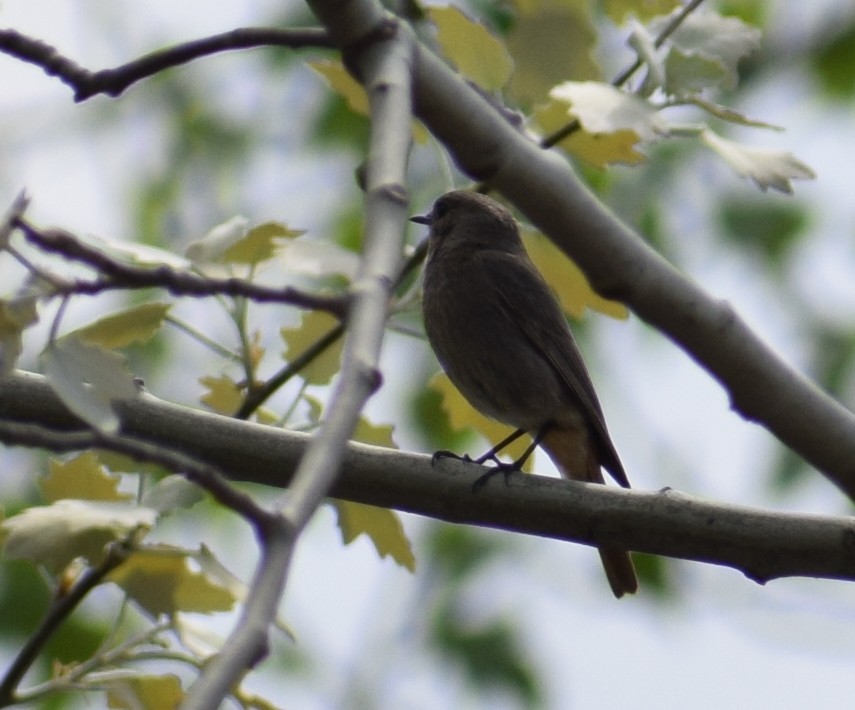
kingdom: Animalia
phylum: Chordata
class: Aves
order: Passeriformes
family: Muscicapidae
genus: Phoenicurus
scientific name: Phoenicurus ochruros
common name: Black redstart
